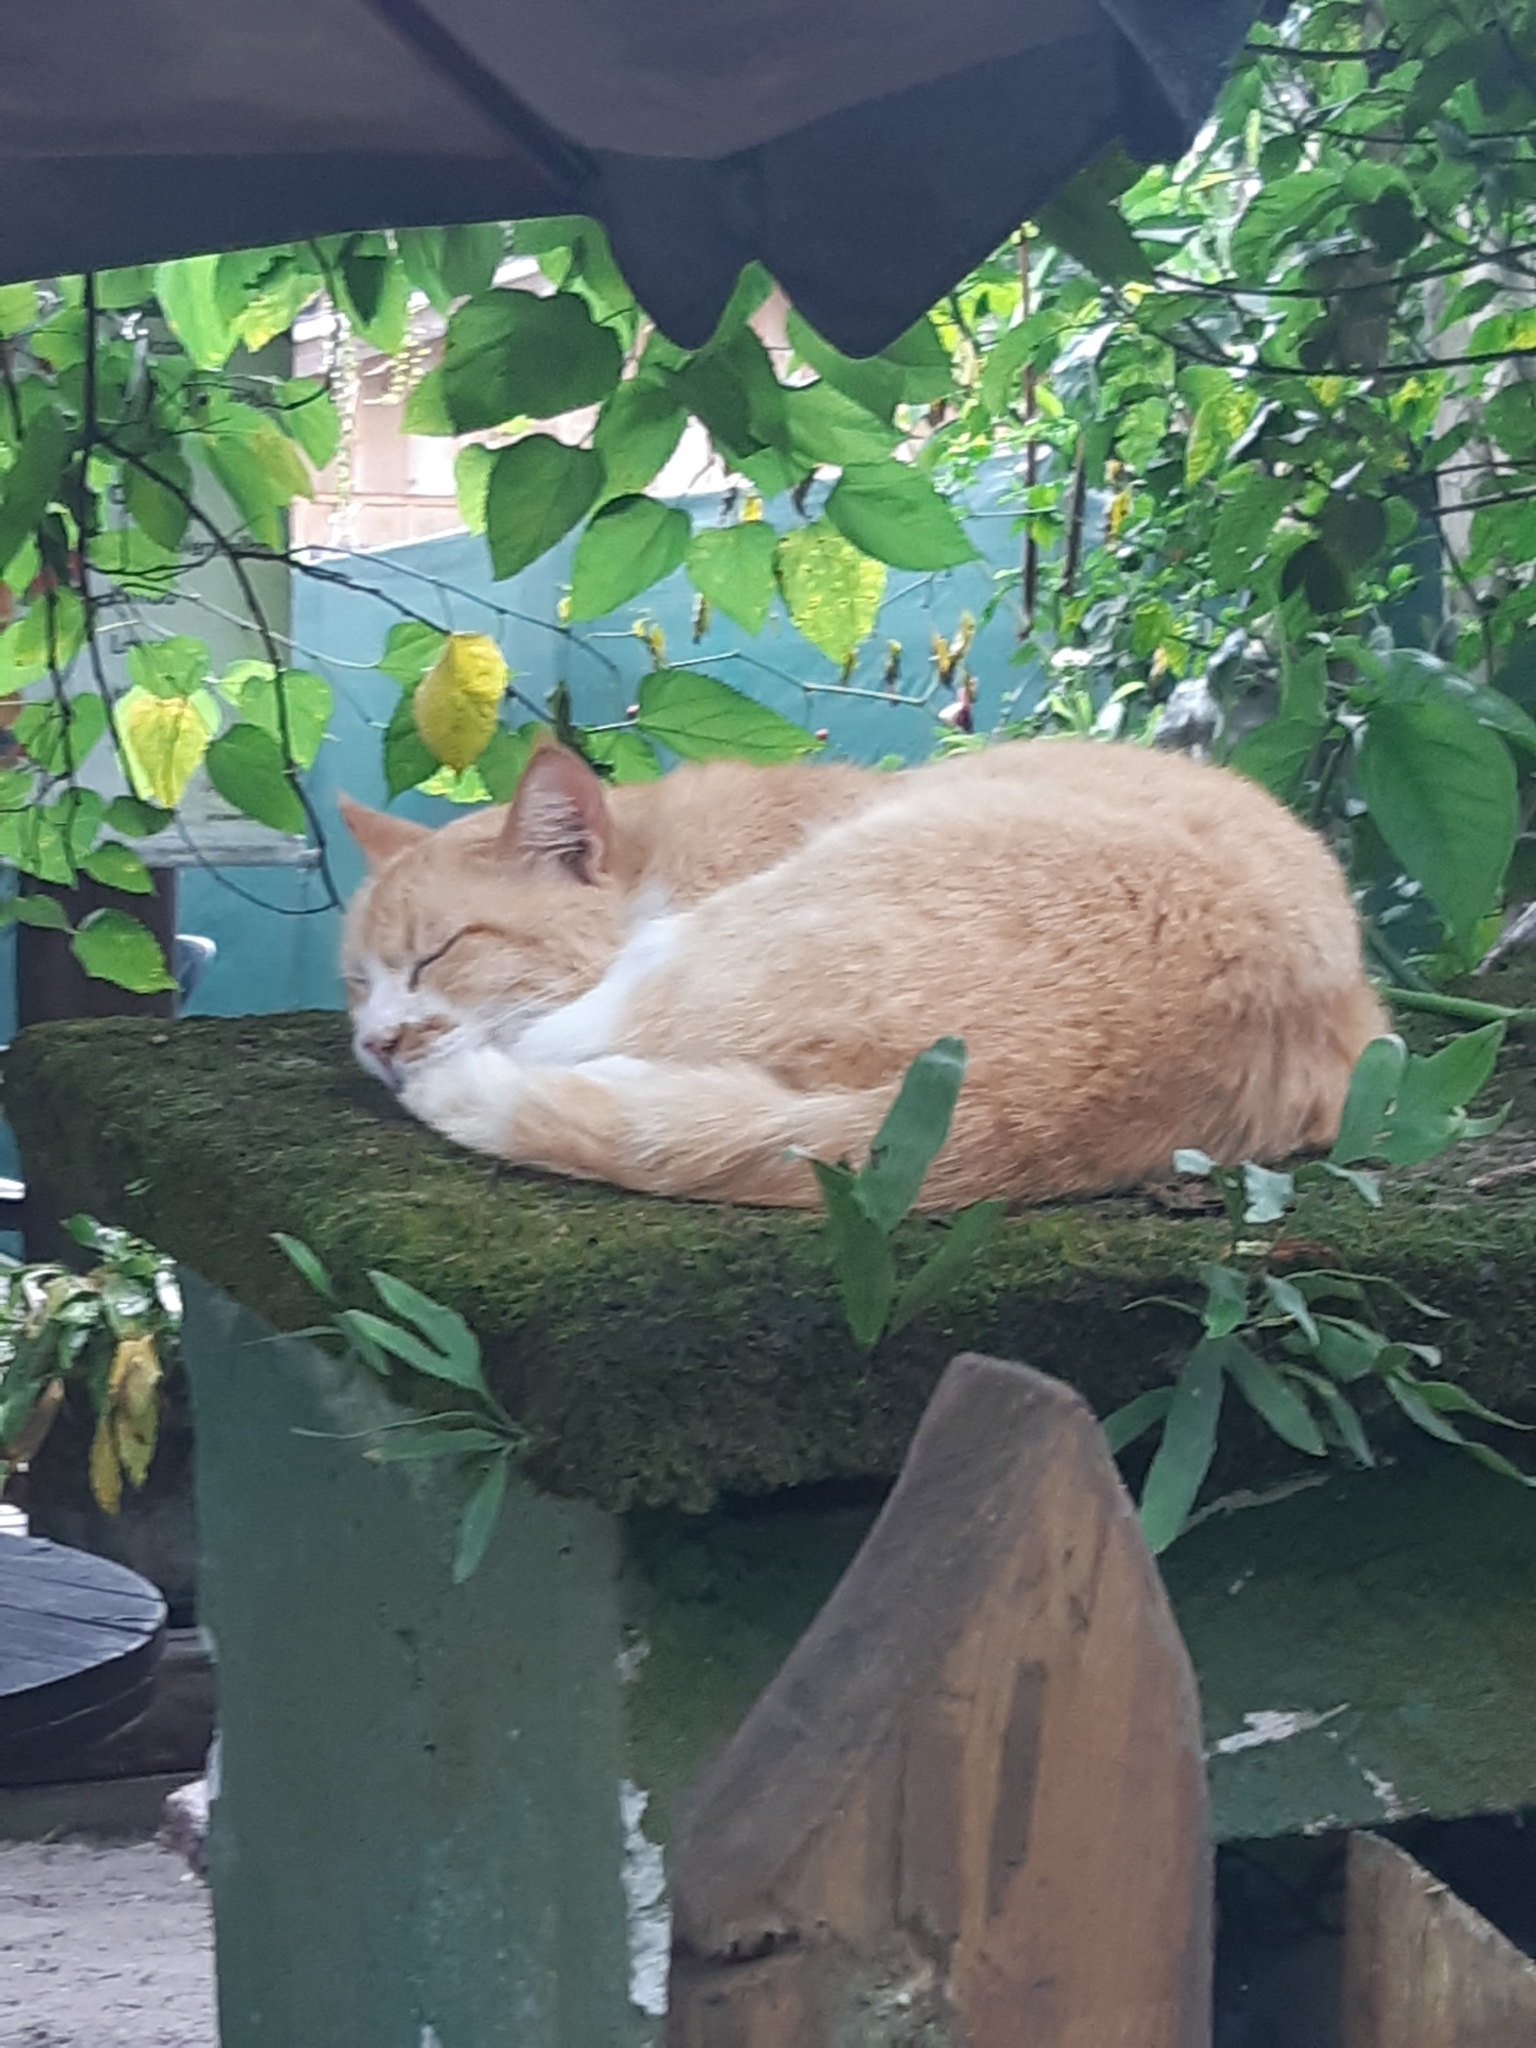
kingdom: Animalia
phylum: Chordata
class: Mammalia
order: Carnivora
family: Felidae
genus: Felis
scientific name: Felis catus
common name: Domestic cat
